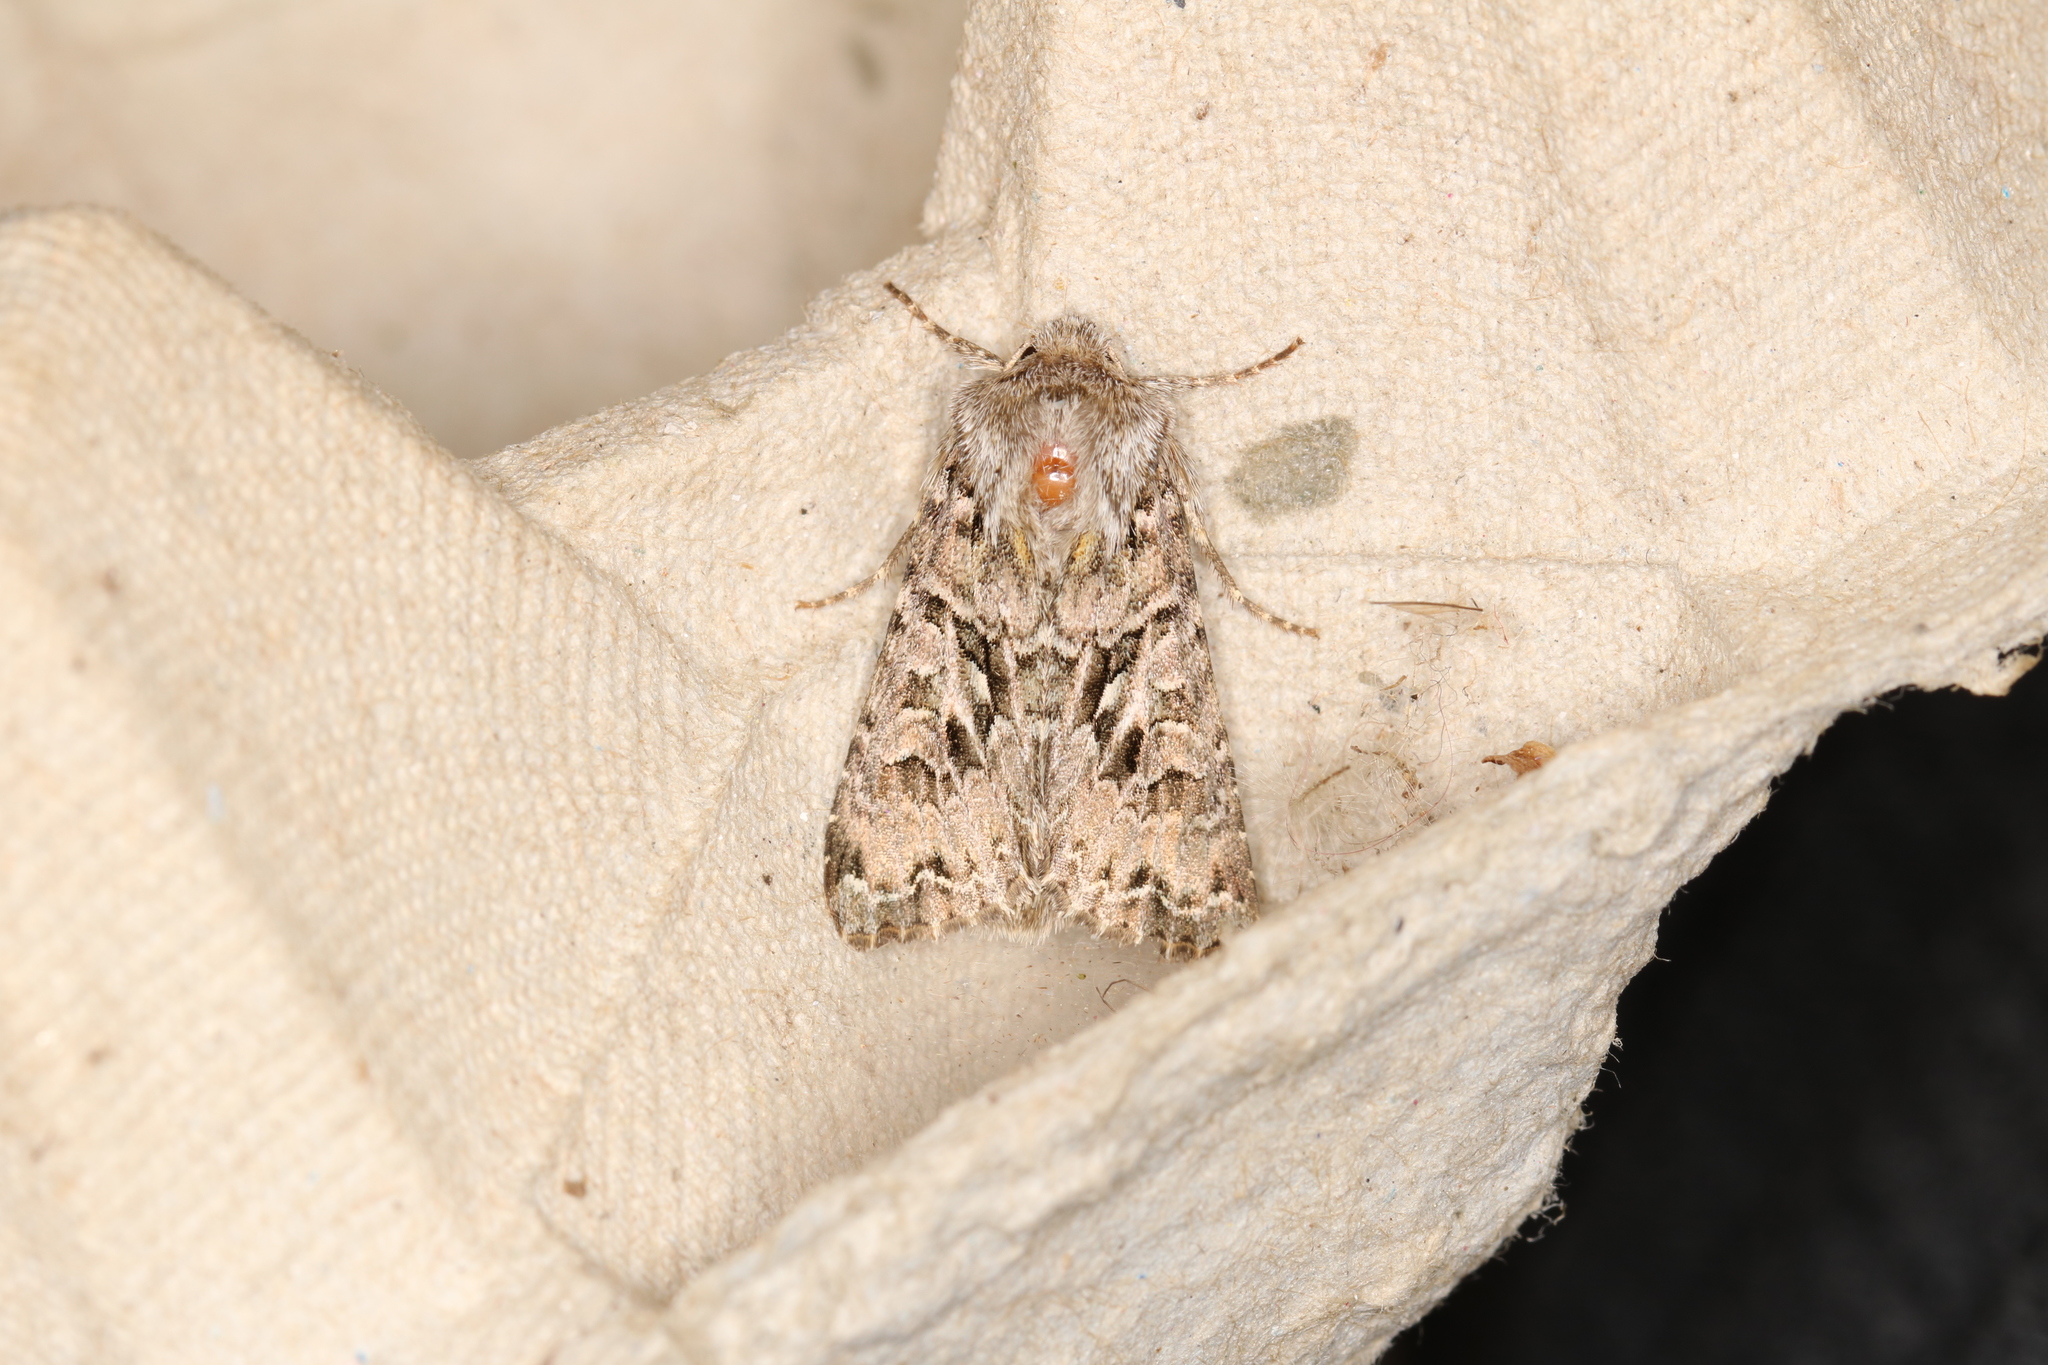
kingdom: Animalia
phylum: Arthropoda
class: Insecta
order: Lepidoptera
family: Noctuidae
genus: Hada
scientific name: Hada plebeja
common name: Shears
